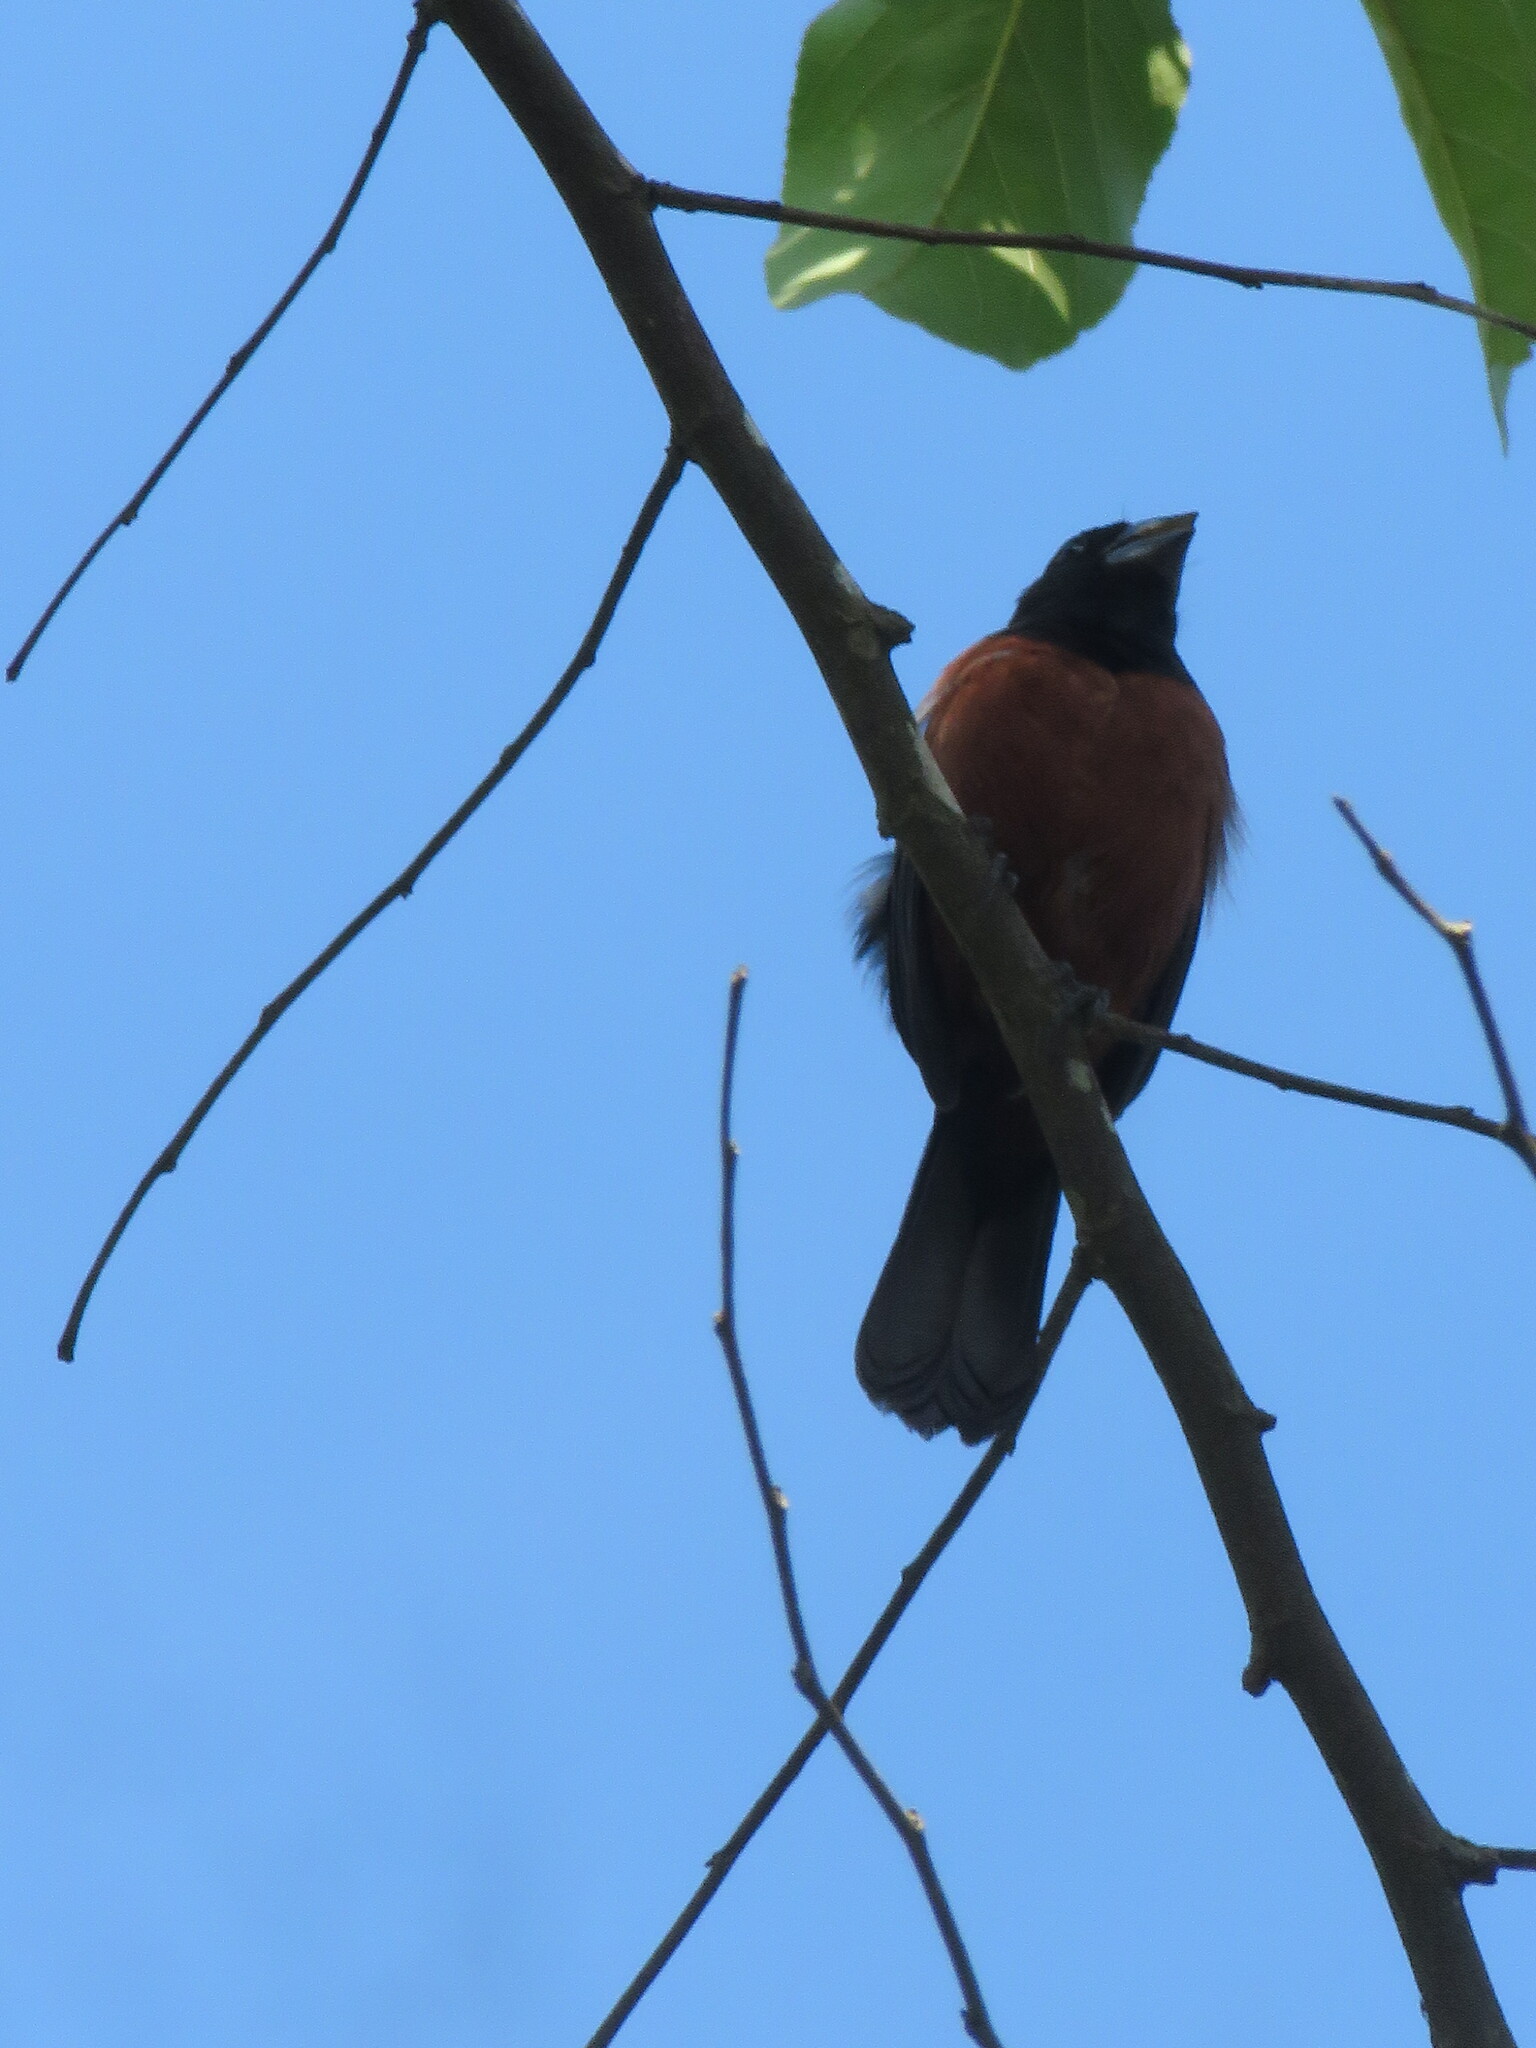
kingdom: Animalia
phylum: Chordata
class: Aves
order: Passeriformes
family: Thraupidae
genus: Sporophila
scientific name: Sporophila angolensis
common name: Chestnut-bellied seed-finch
